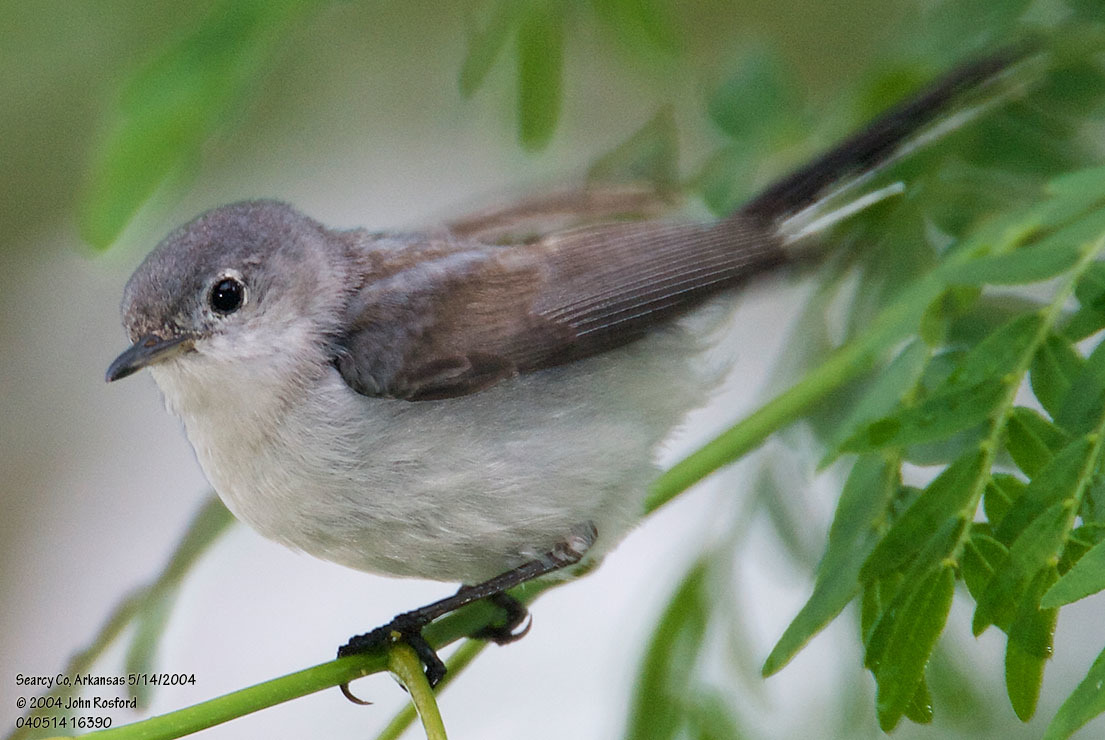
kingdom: Animalia
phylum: Chordata
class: Aves
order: Passeriformes
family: Polioptilidae
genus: Polioptila
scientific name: Polioptila caerulea
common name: Blue-gray gnatcatcher
